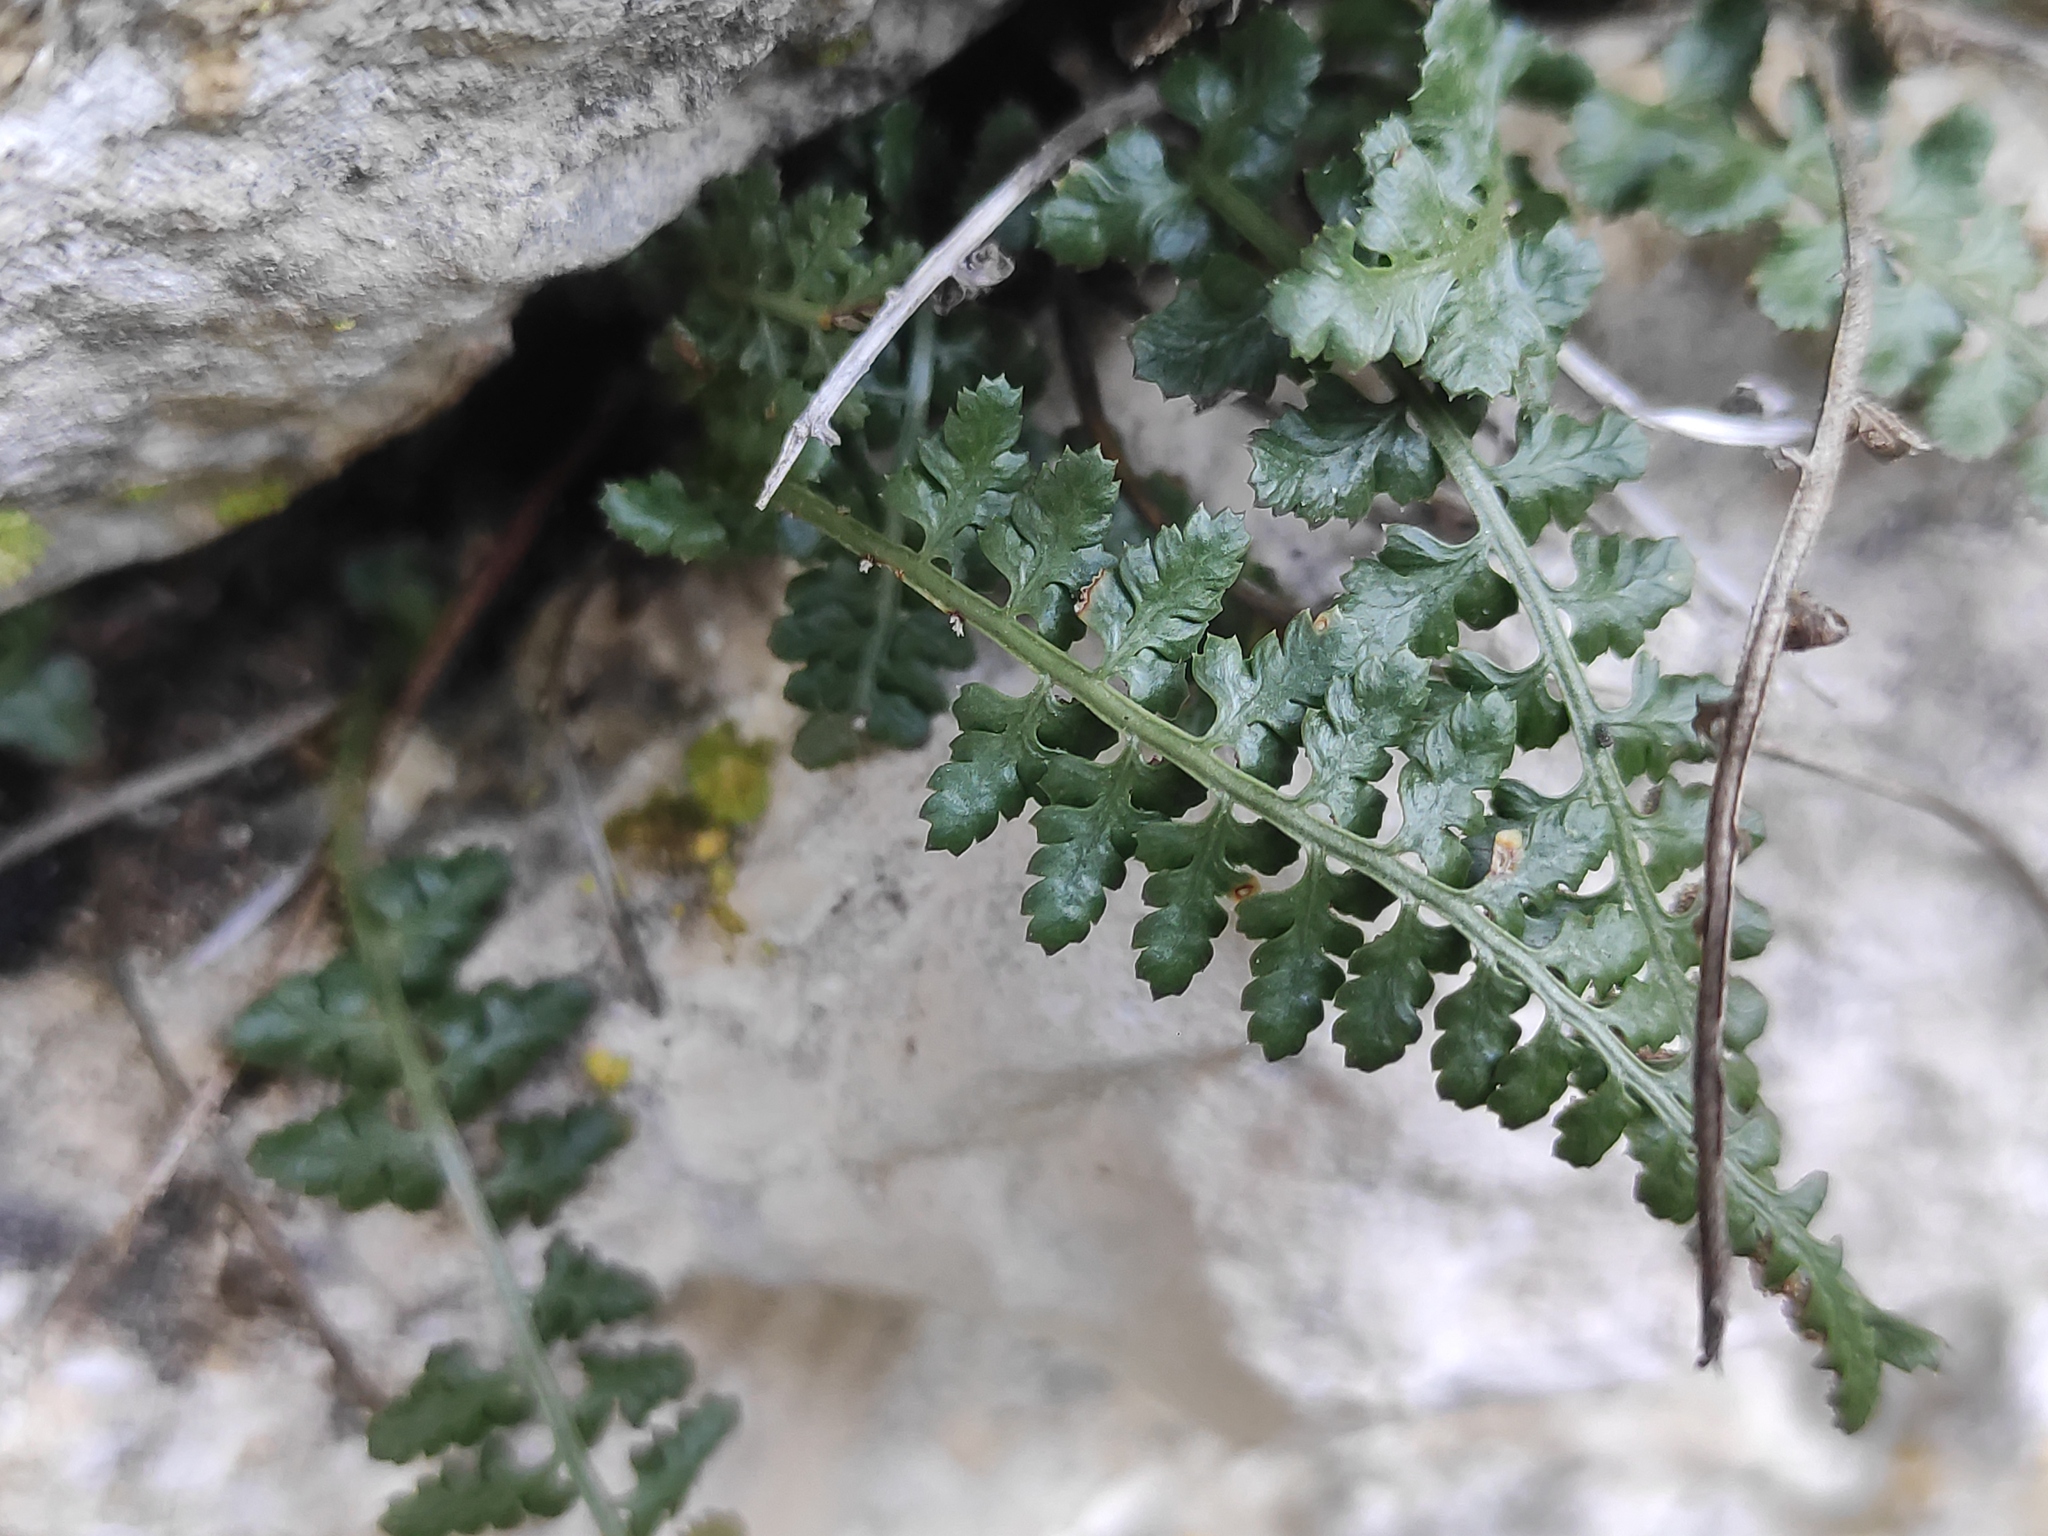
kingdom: Plantae
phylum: Tracheophyta
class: Polypodiopsida
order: Polypodiales
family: Aspleniaceae
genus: Asplenium
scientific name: Asplenium fontanum
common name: Fountain spleenwort
